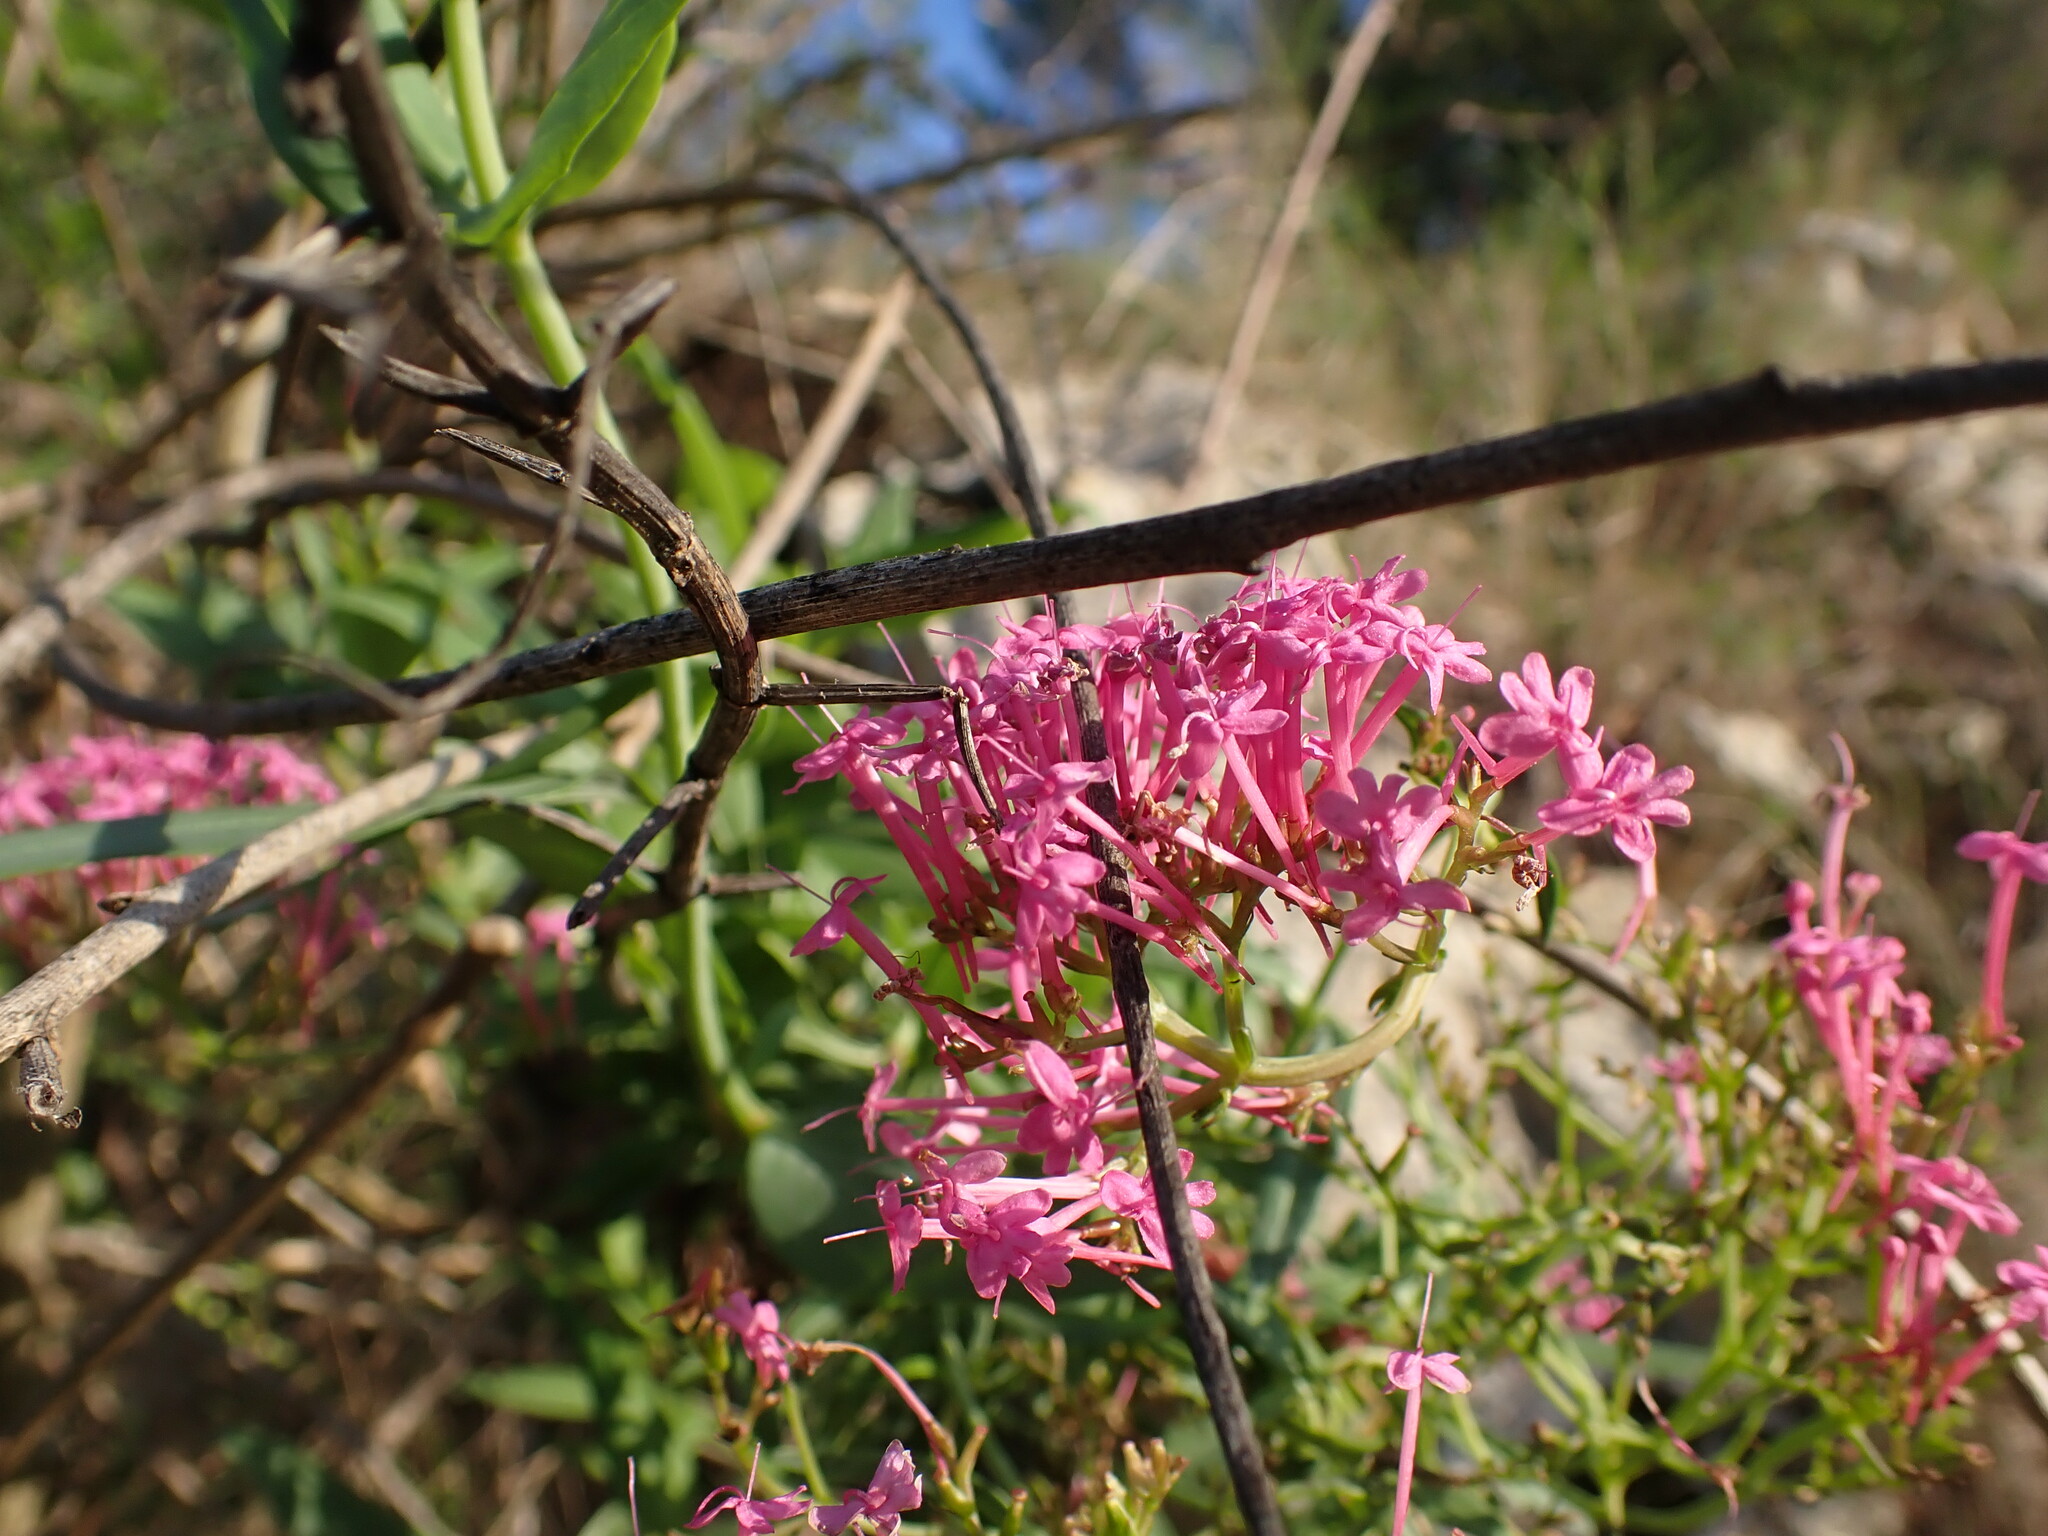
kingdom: Plantae
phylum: Tracheophyta
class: Magnoliopsida
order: Dipsacales
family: Caprifoliaceae
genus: Centranthus
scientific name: Centranthus ruber
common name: Red valerian
